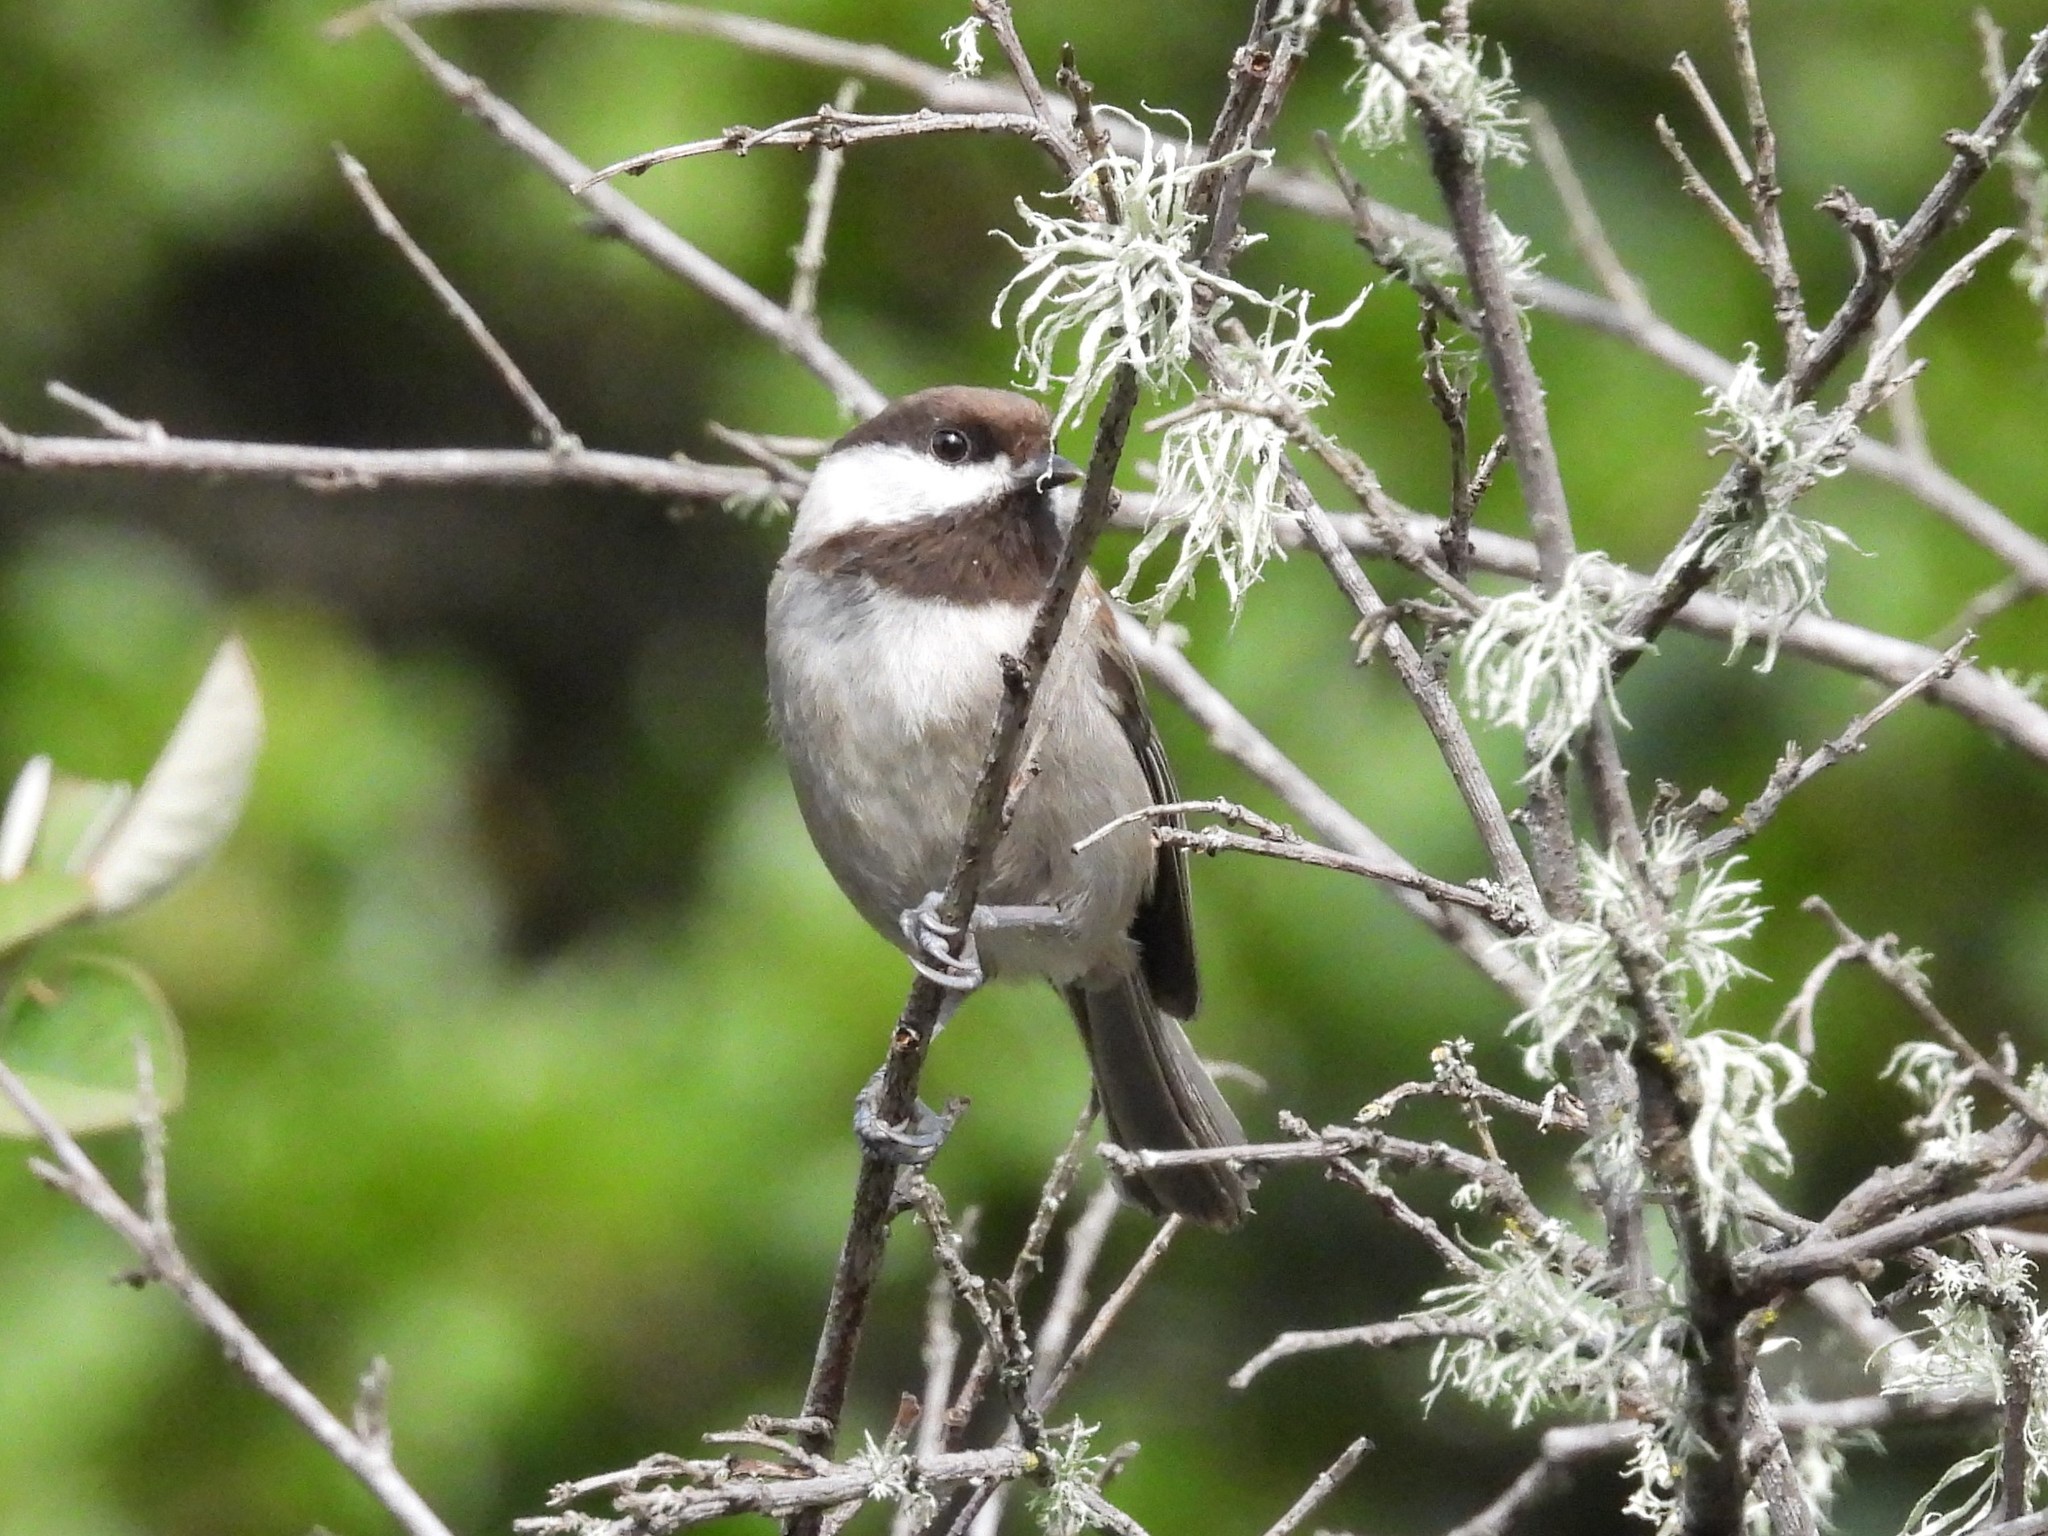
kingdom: Animalia
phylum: Chordata
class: Aves
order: Passeriformes
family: Paridae
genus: Poecile
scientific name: Poecile rufescens
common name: Chestnut-backed chickadee
